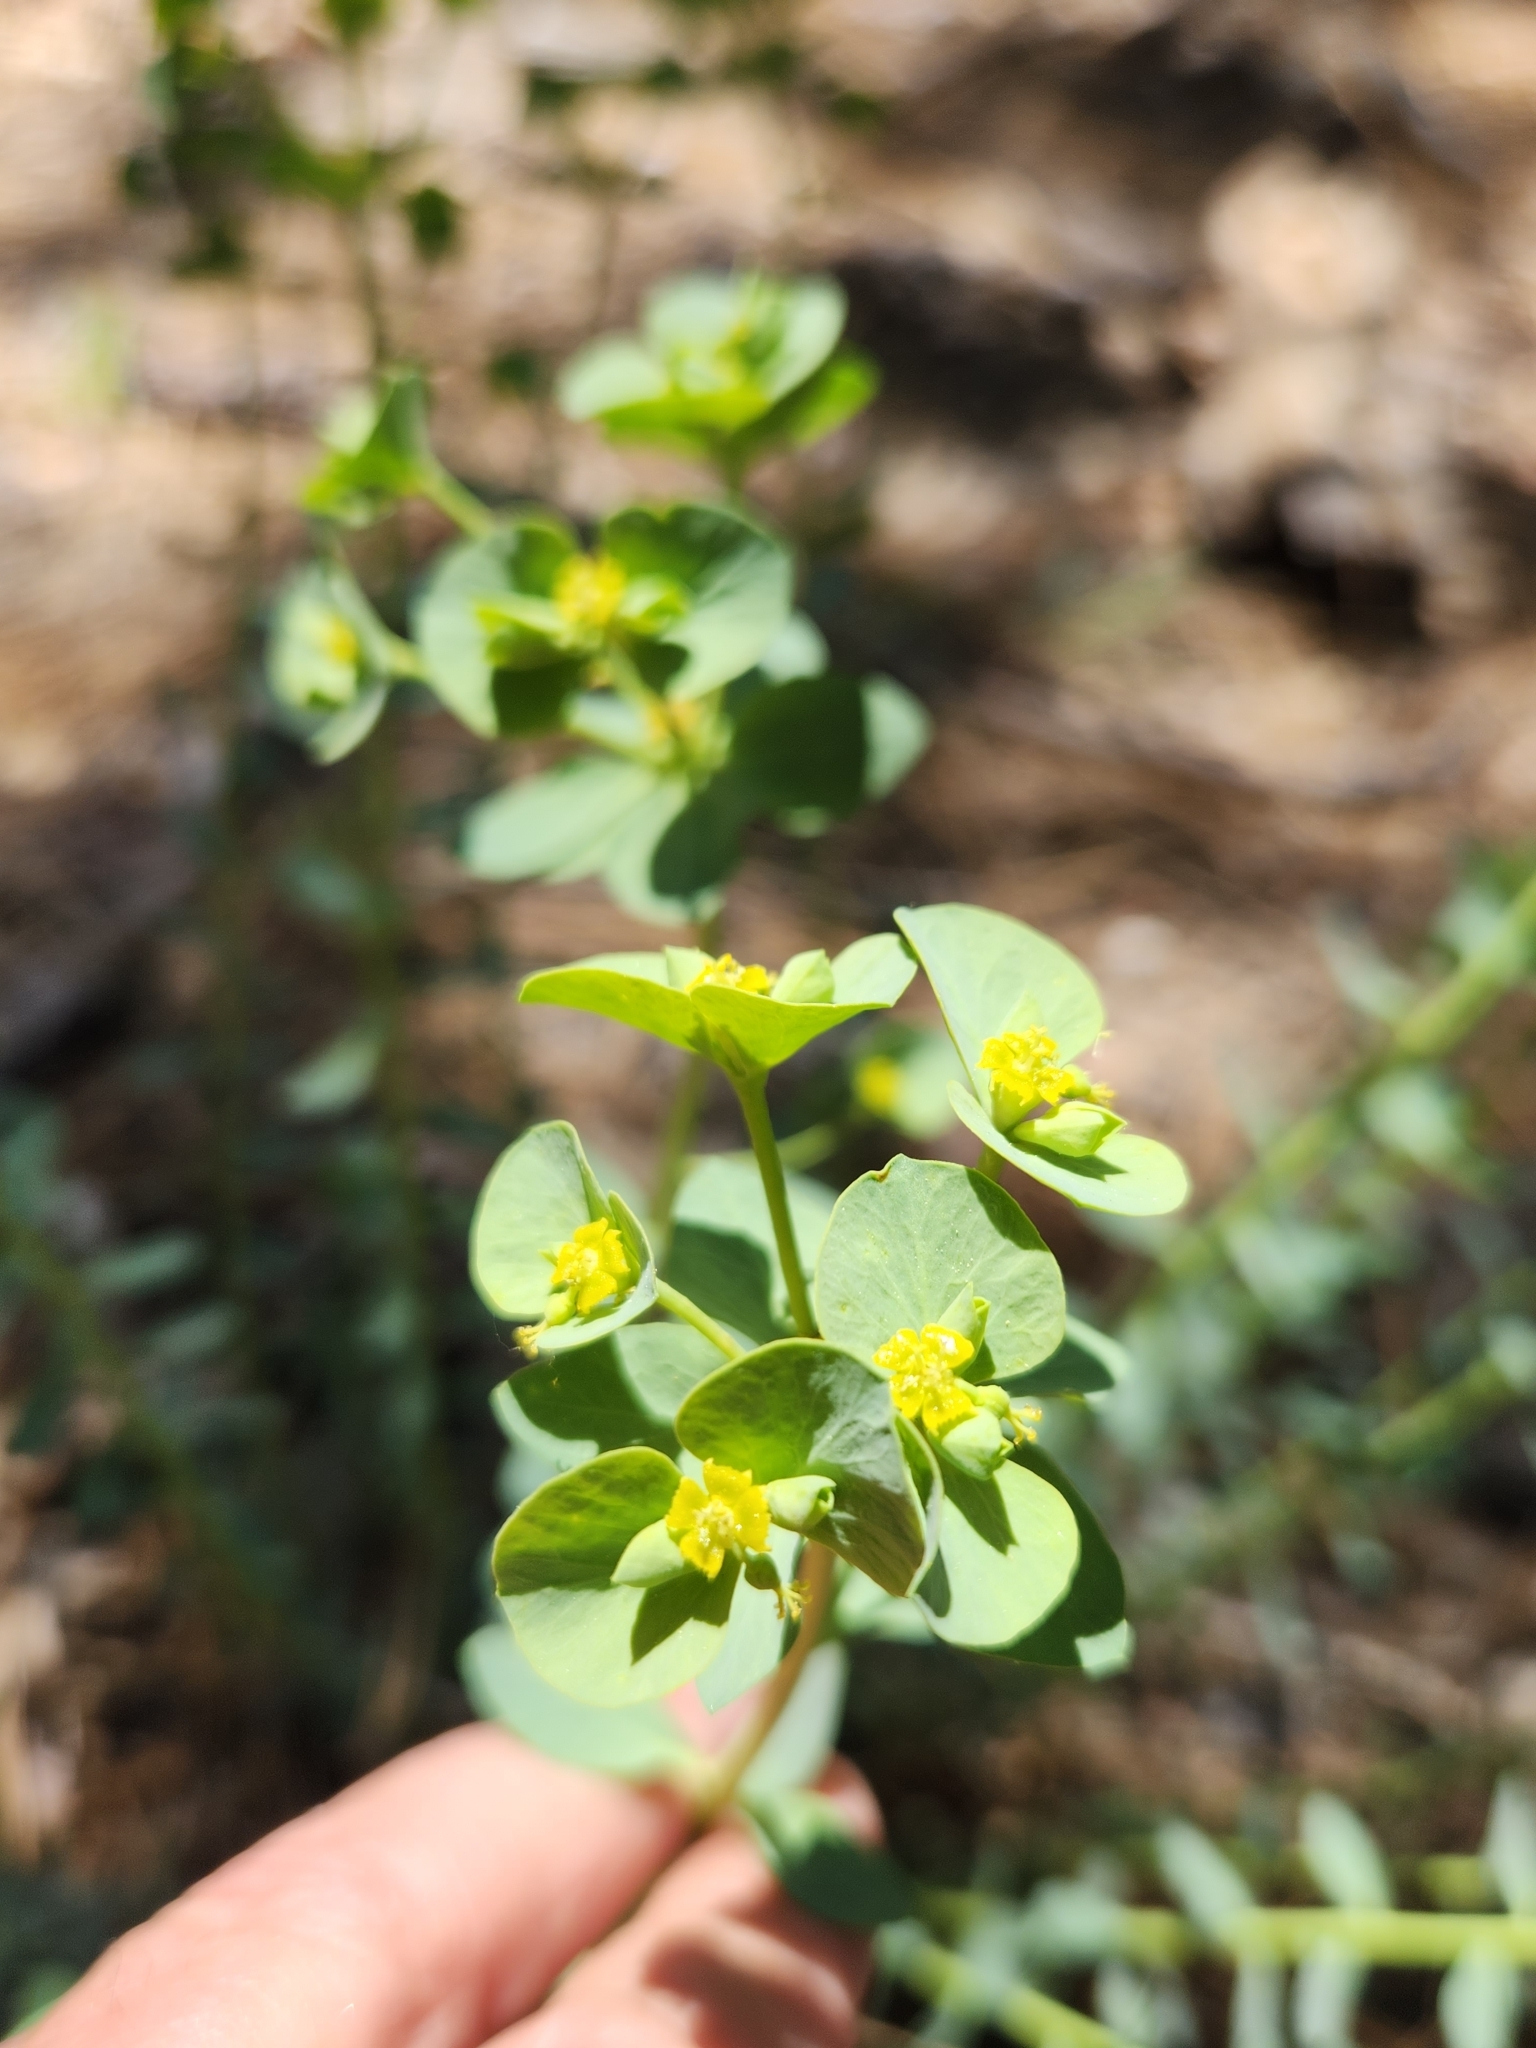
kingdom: Plantae
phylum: Tracheophyta
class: Magnoliopsida
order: Malpighiales
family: Euphorbiaceae
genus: Euphorbia
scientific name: Euphorbia lurida
